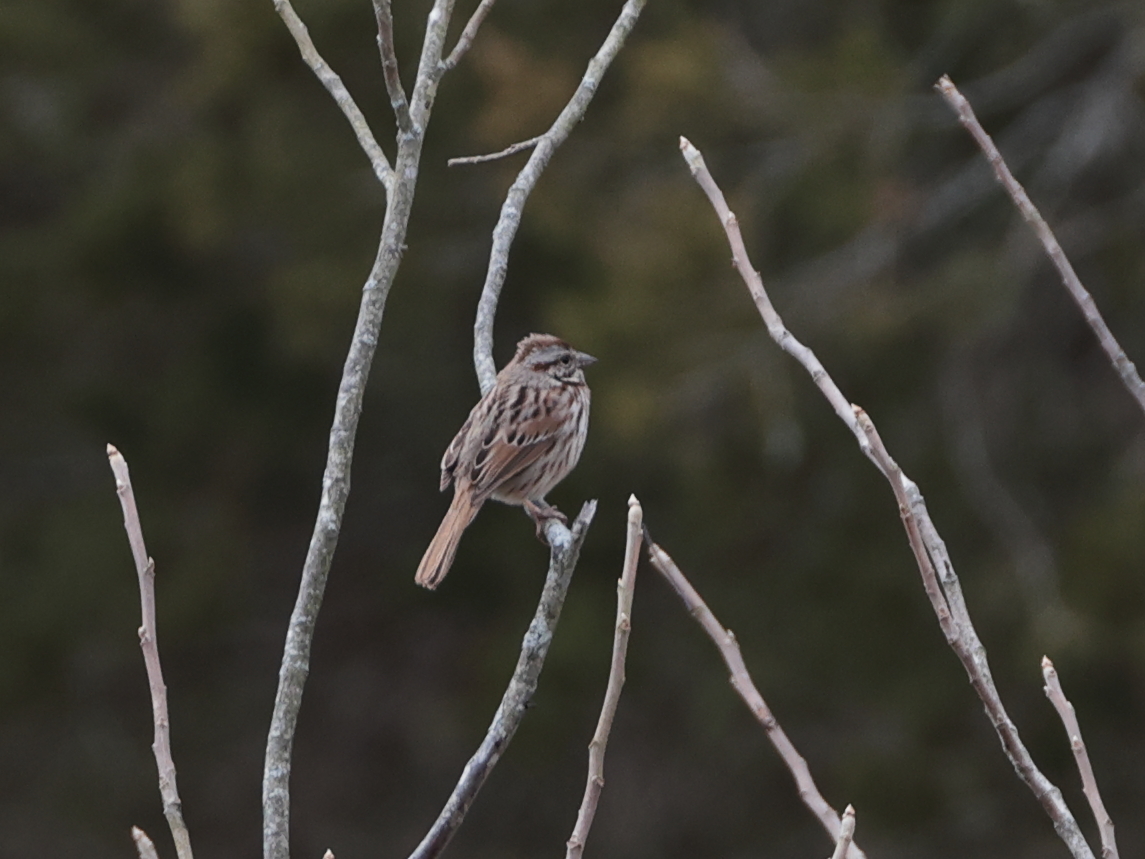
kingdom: Animalia
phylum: Chordata
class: Aves
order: Passeriformes
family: Passerellidae
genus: Melospiza
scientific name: Melospiza melodia
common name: Song sparrow
